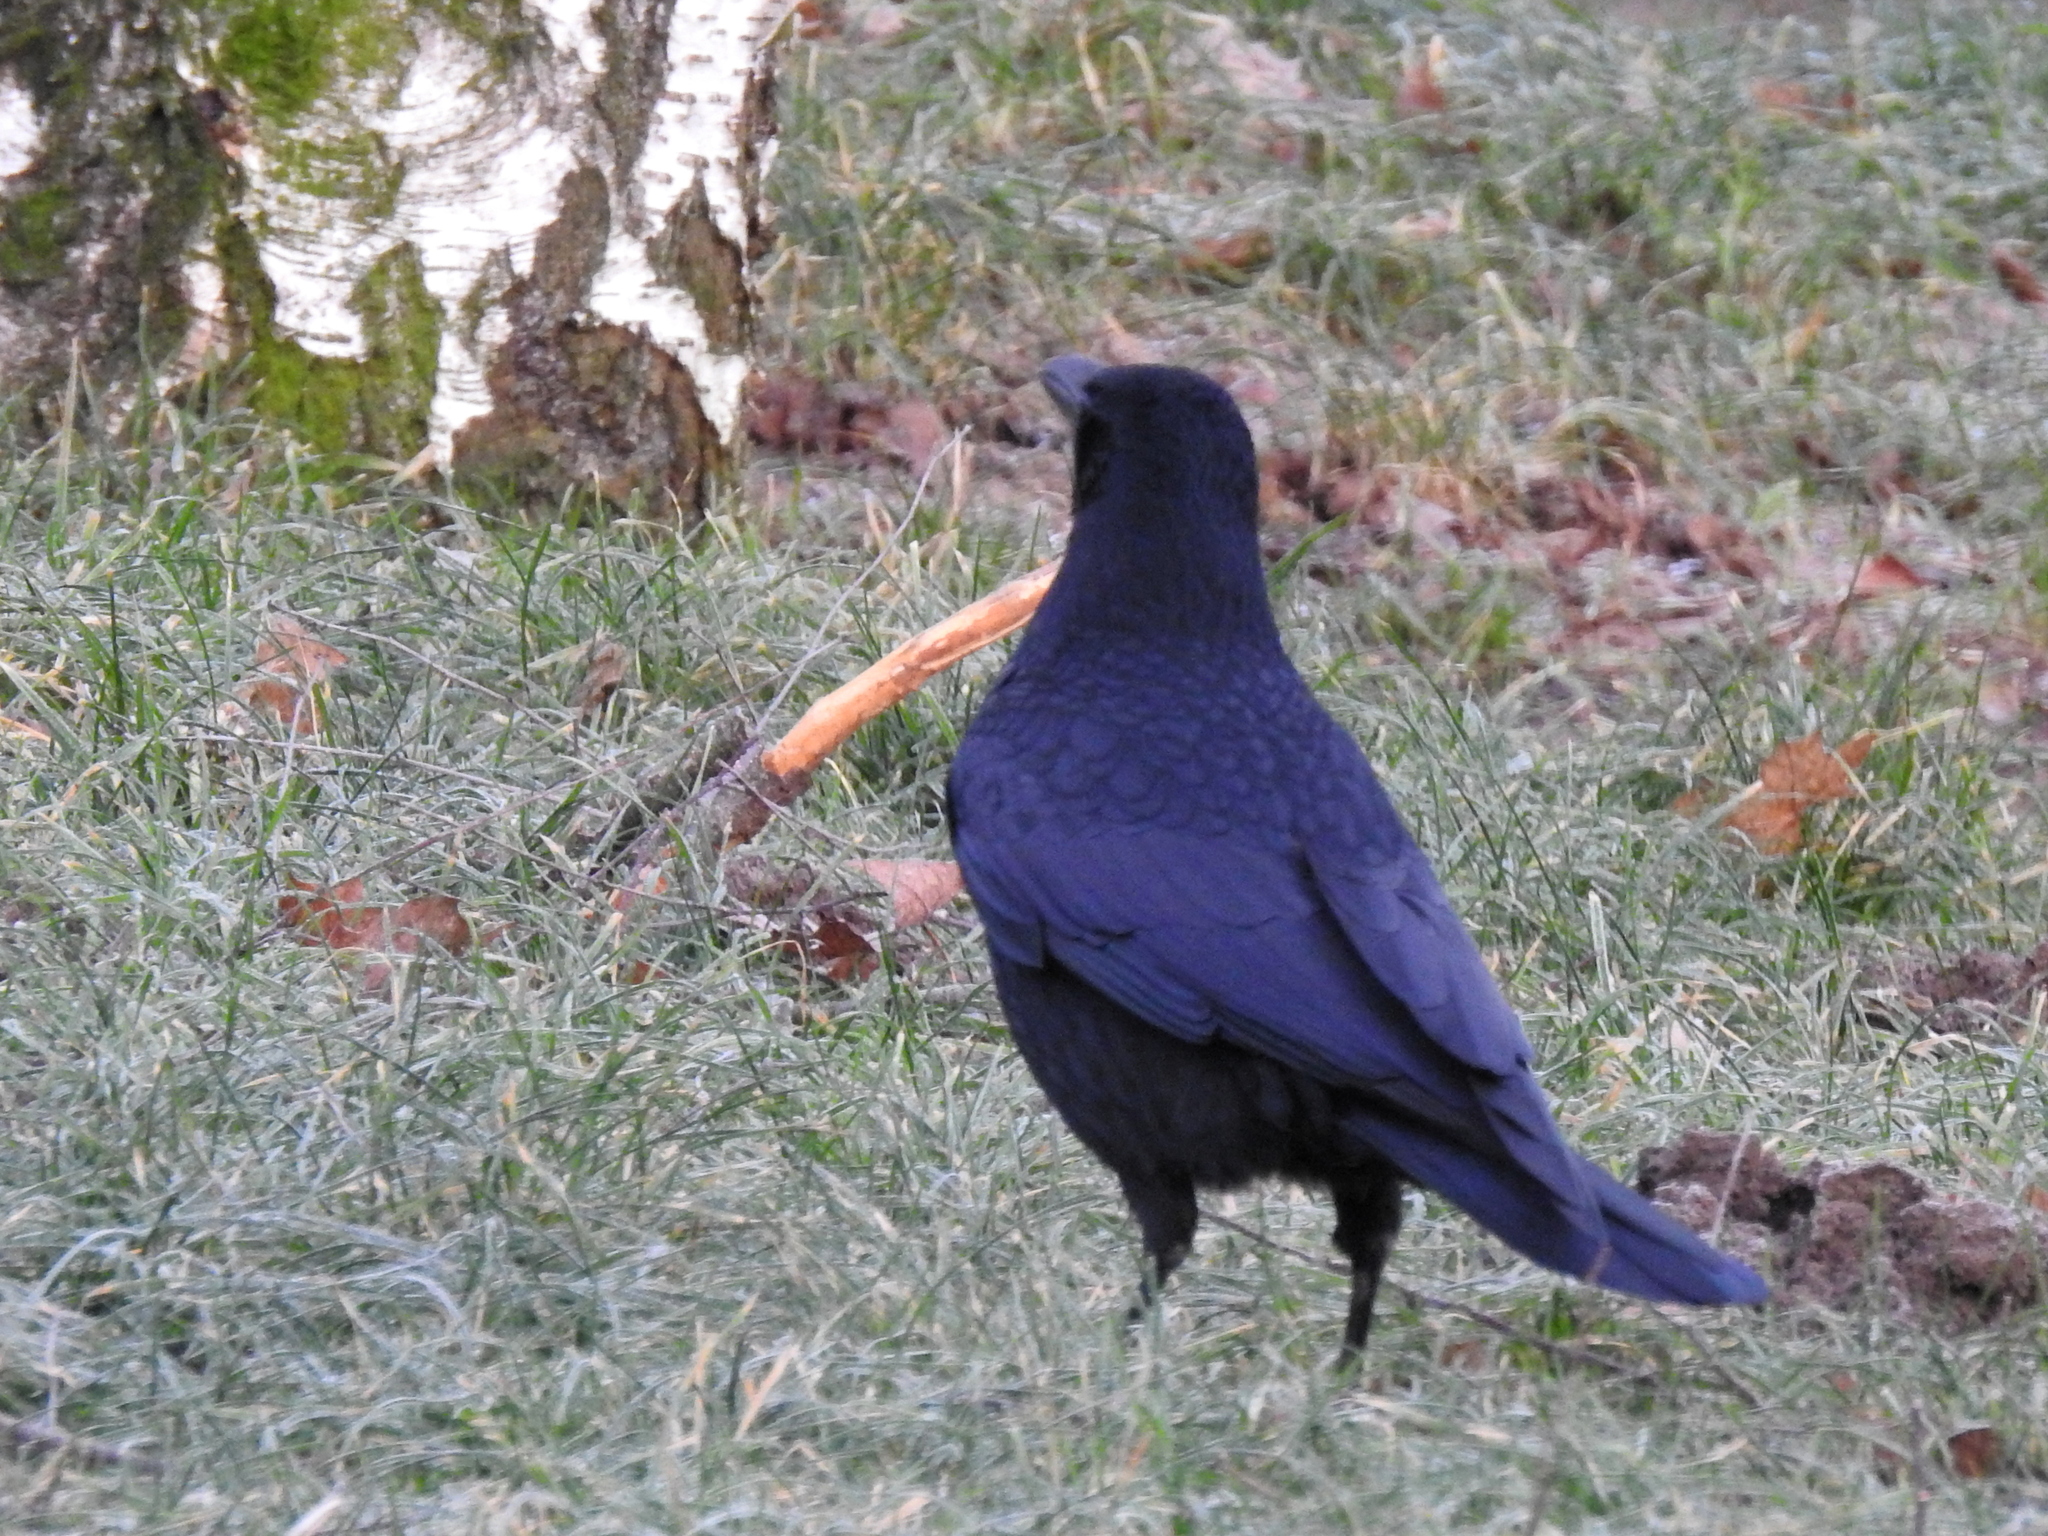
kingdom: Animalia
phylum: Chordata
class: Aves
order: Passeriformes
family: Corvidae
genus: Corvus
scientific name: Corvus corone
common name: Carrion crow
